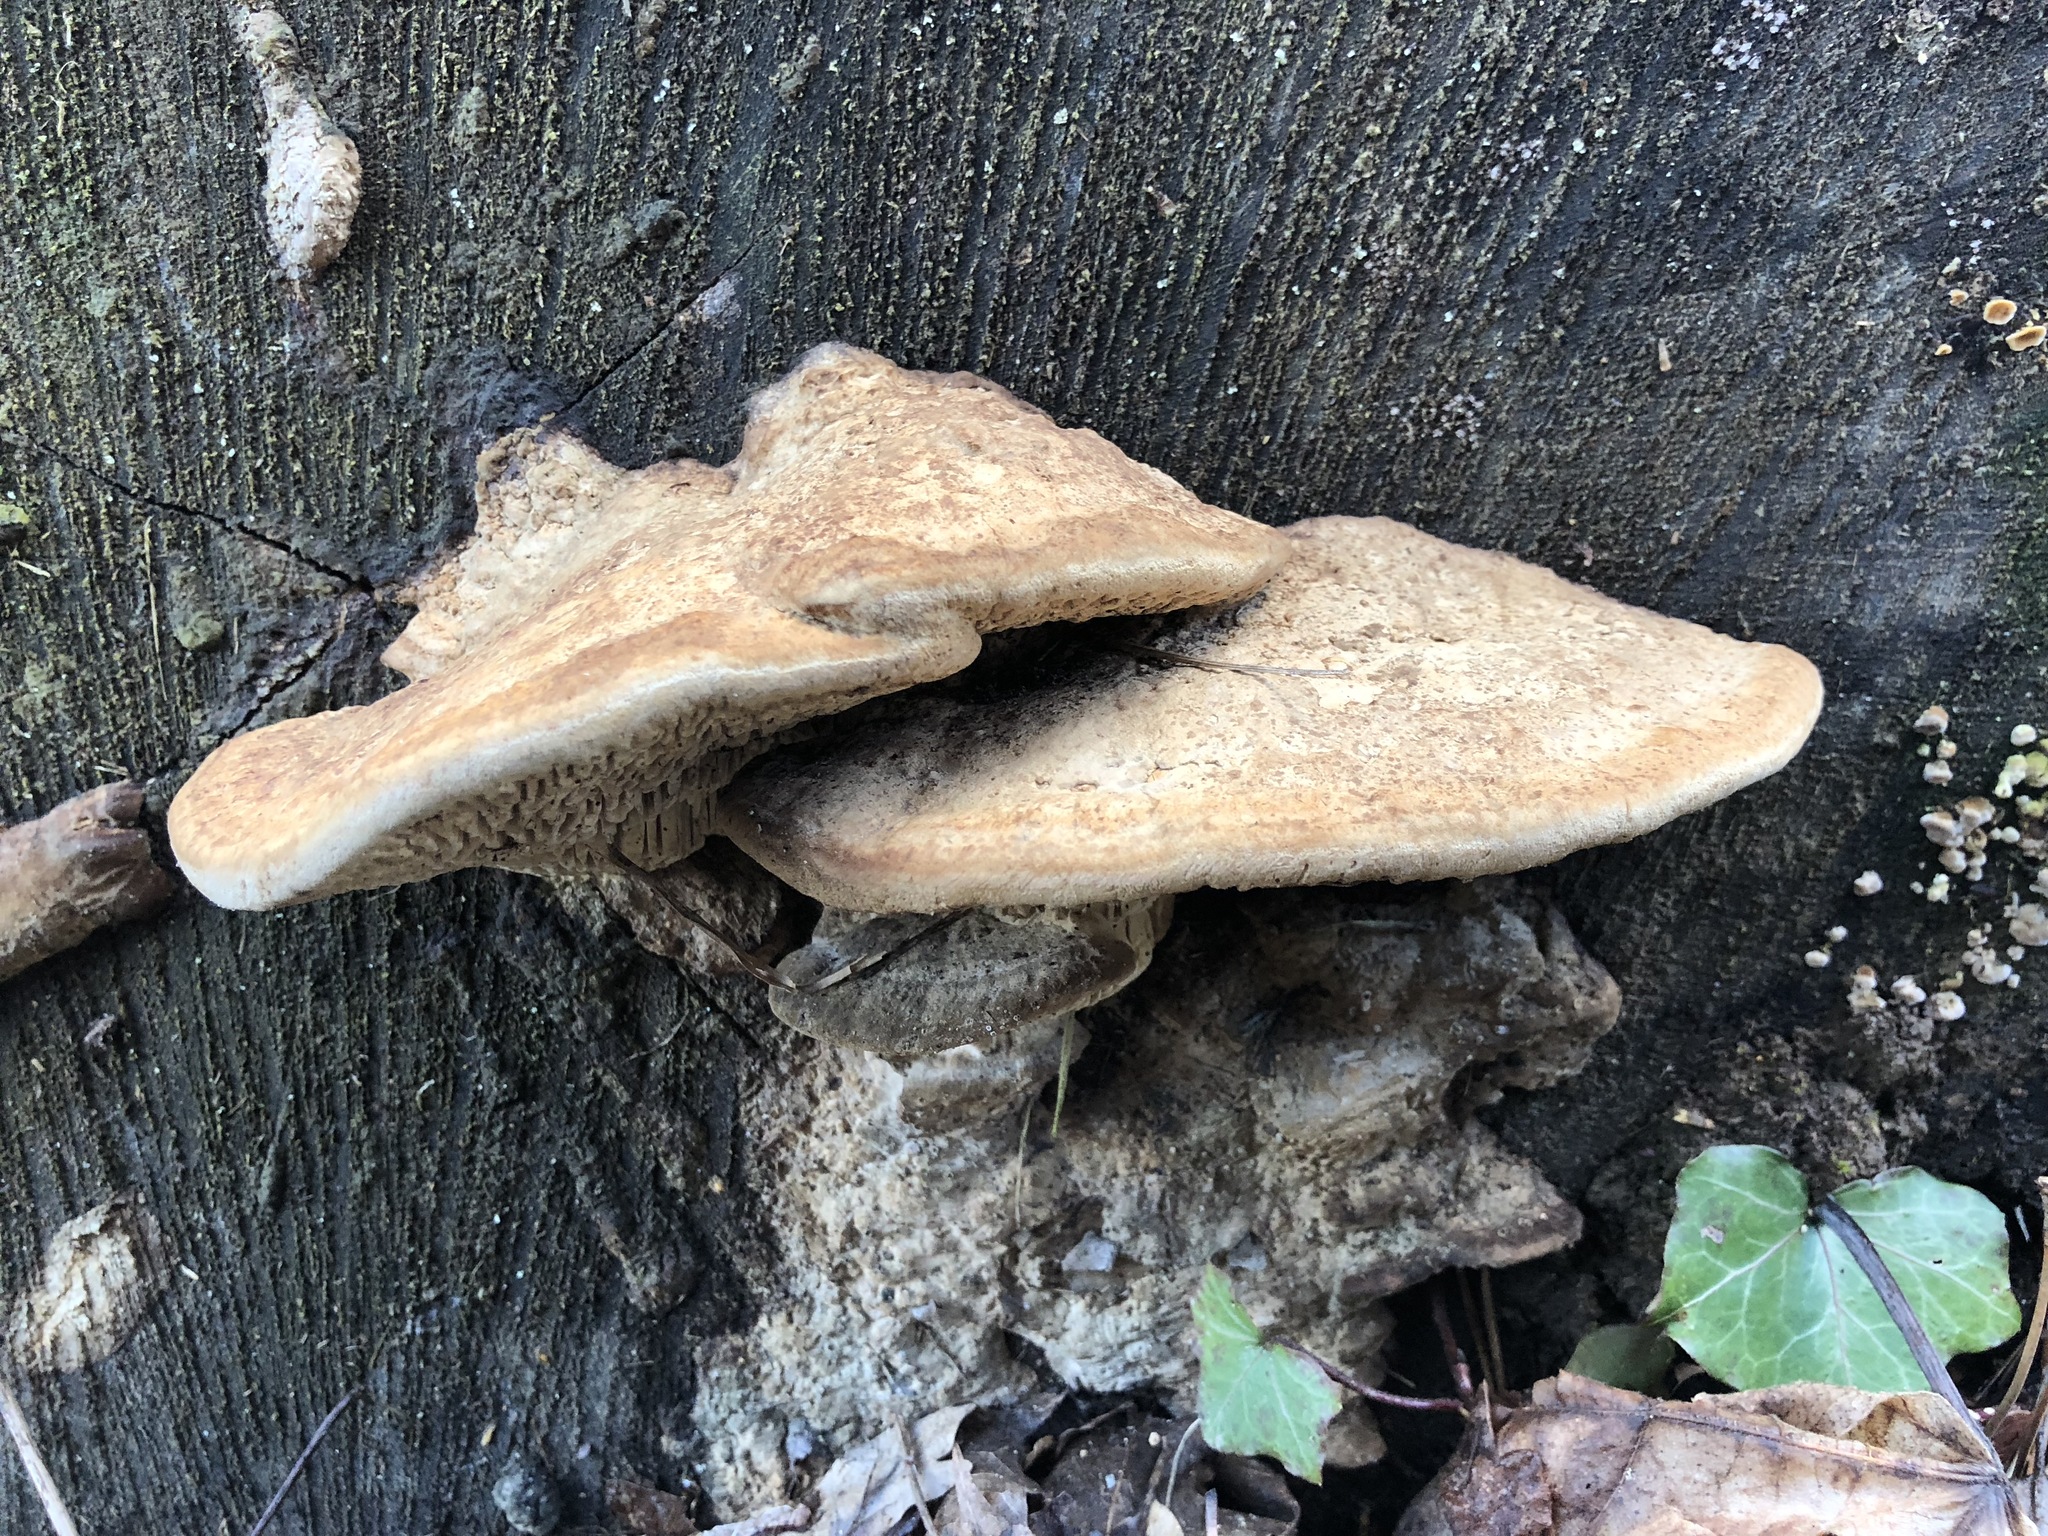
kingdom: Fungi
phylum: Basidiomycota
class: Agaricomycetes
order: Polyporales
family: Fomitopsidaceae
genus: Fomitopsis
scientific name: Fomitopsis
